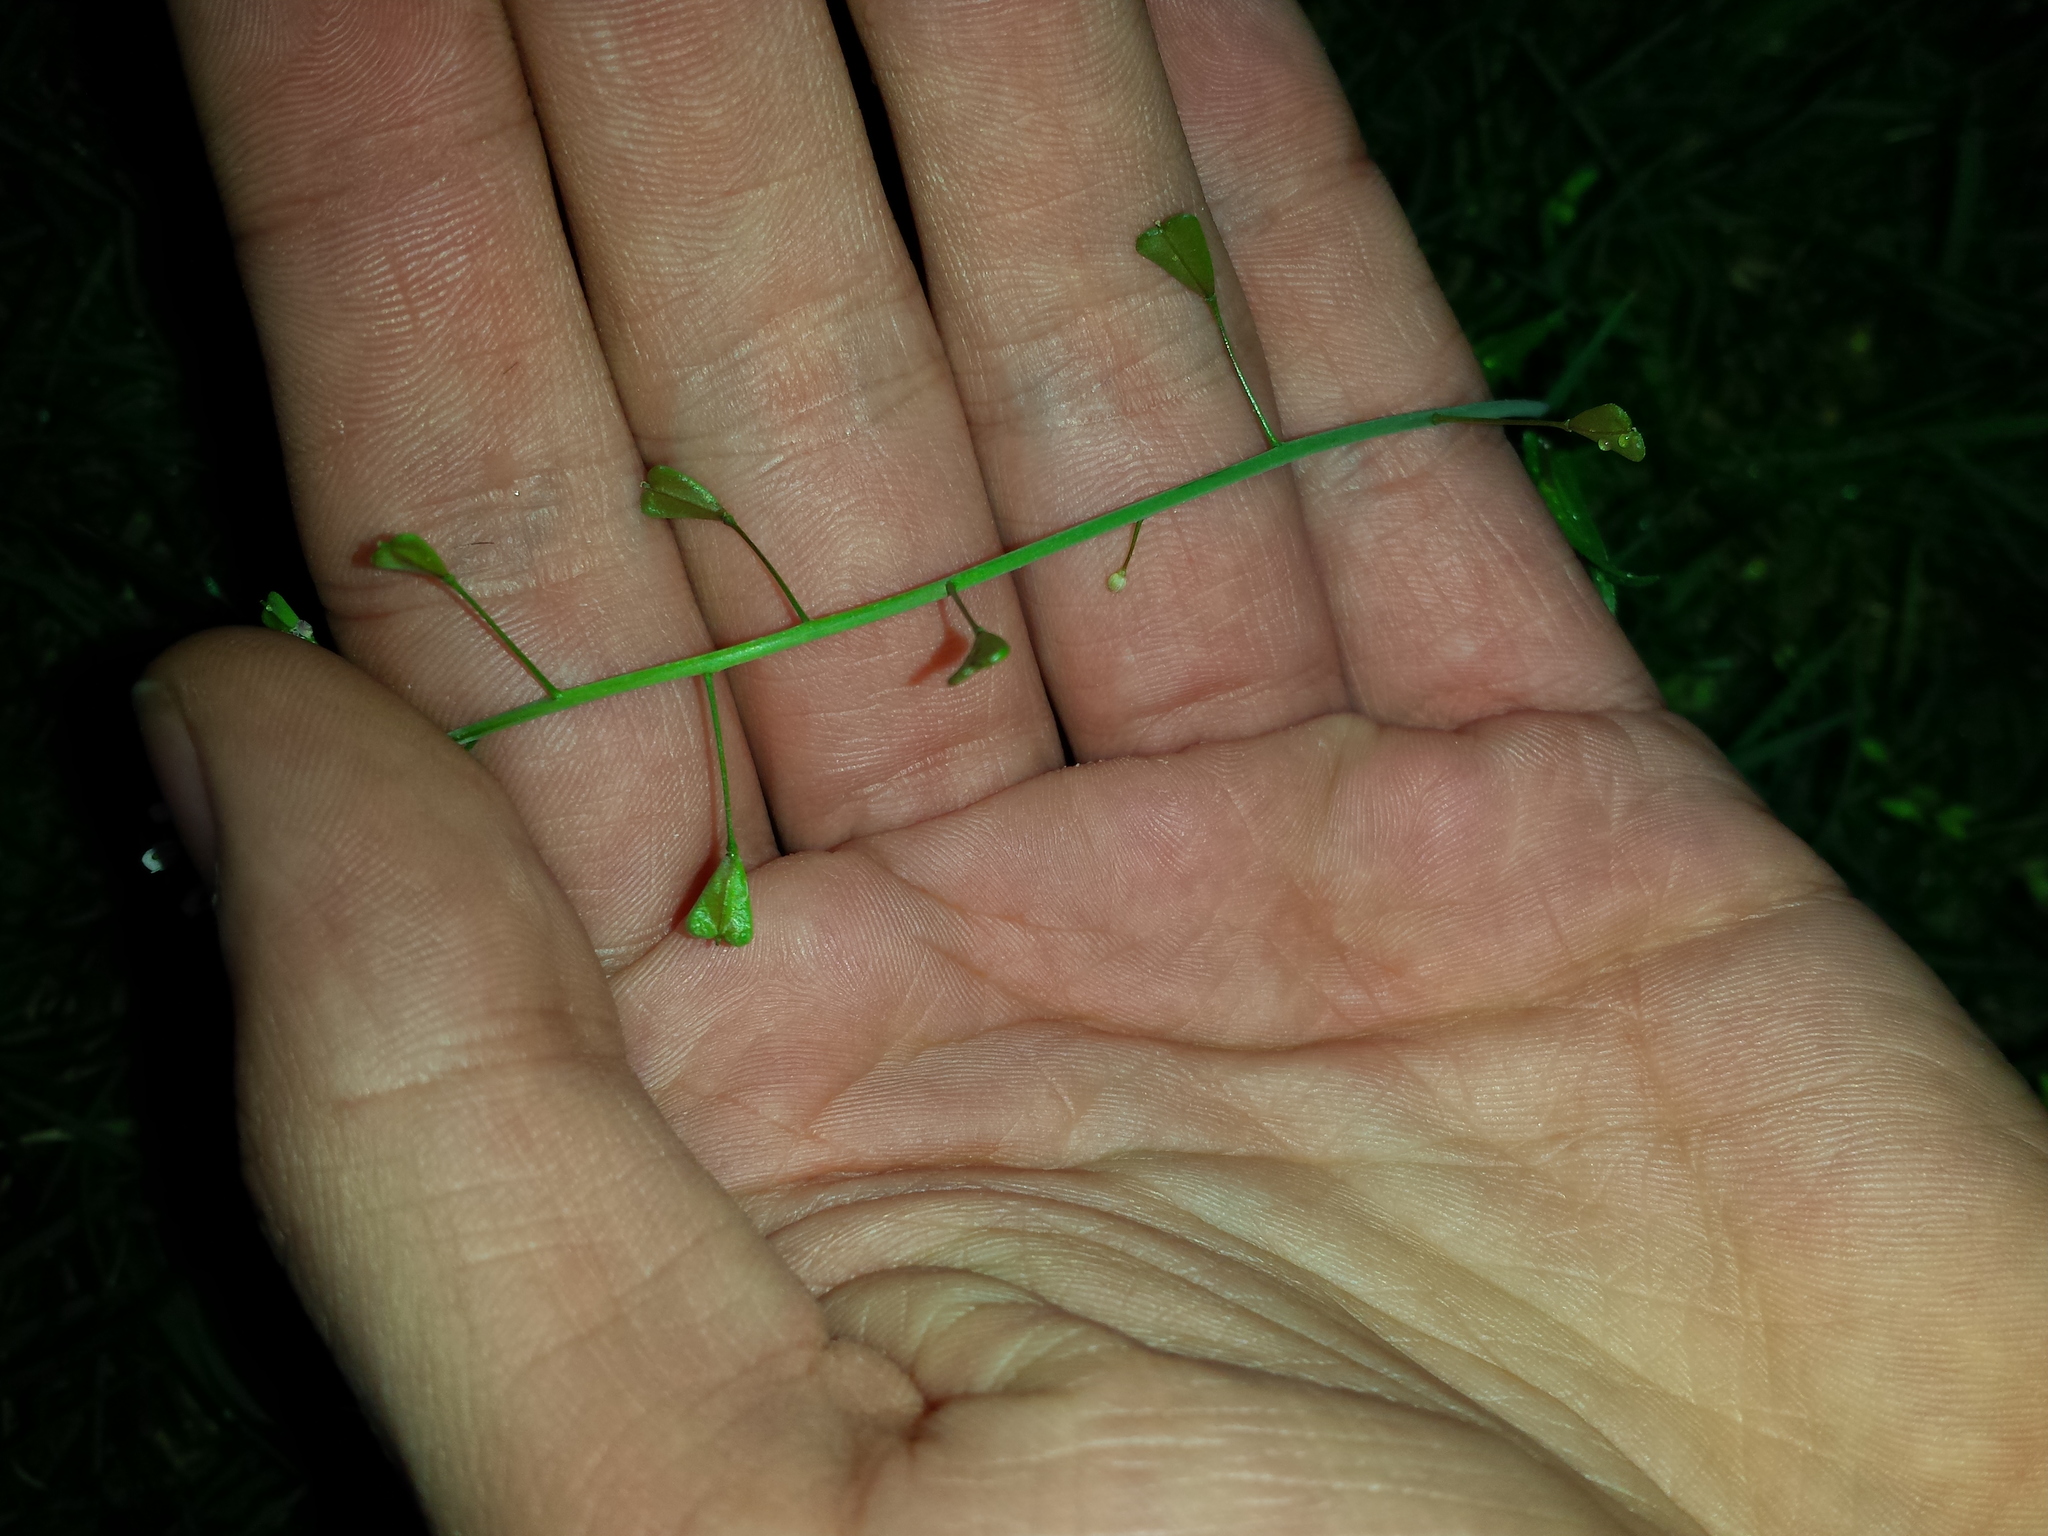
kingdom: Plantae
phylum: Tracheophyta
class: Magnoliopsida
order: Brassicales
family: Brassicaceae
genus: Capsella
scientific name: Capsella bursa-pastoris
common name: Shepherd's purse
